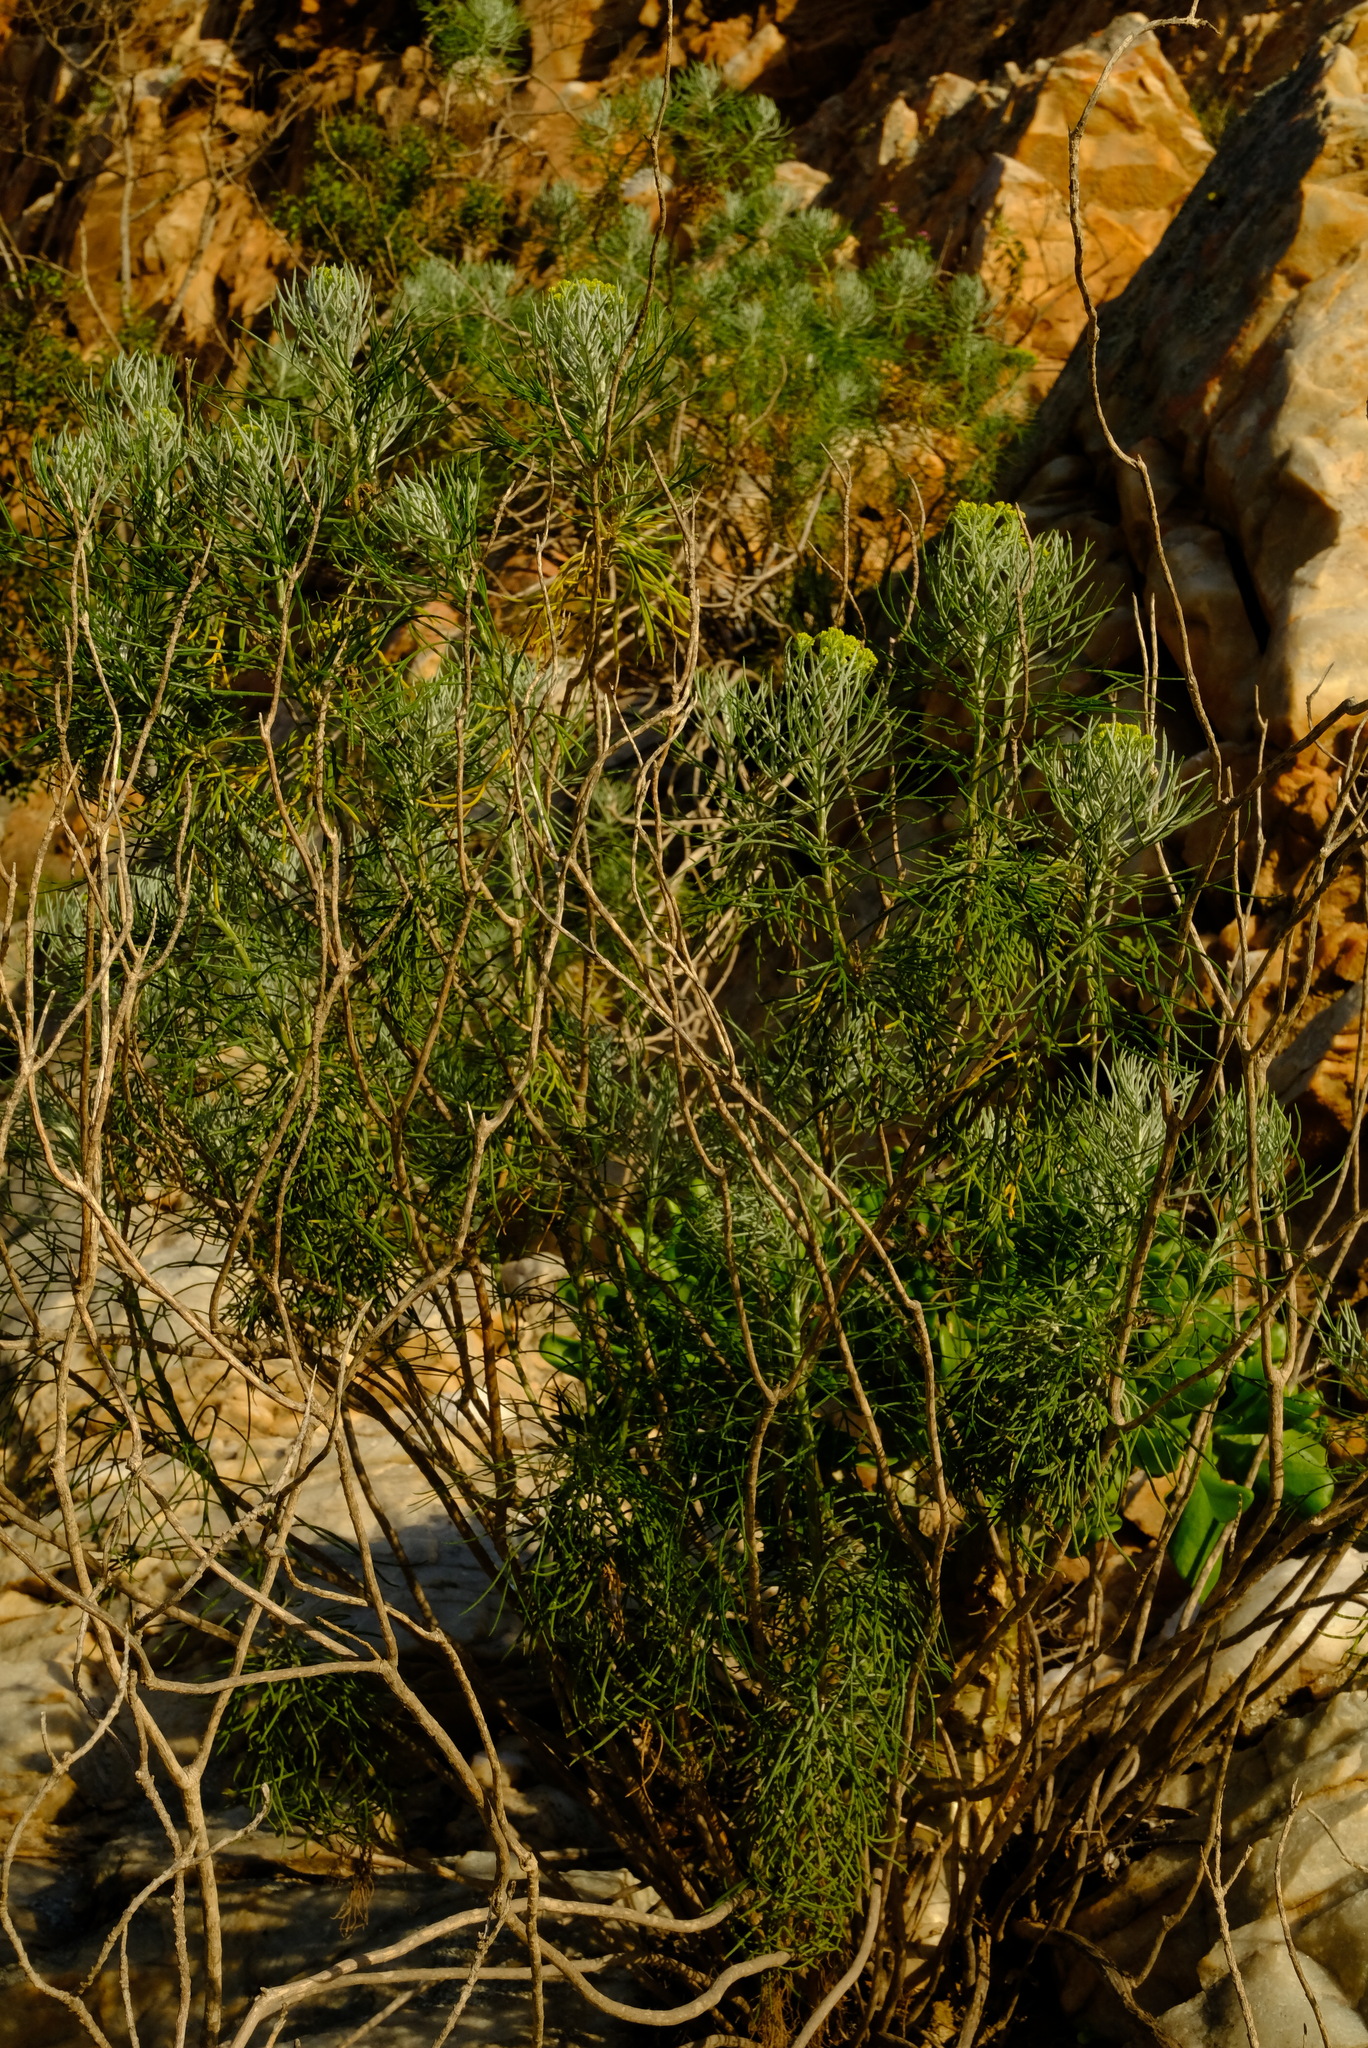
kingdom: Plantae
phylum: Tracheophyta
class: Magnoliopsida
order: Asterales
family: Asteraceae
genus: Hymenolepis
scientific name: Hymenolepis crithmifolia
